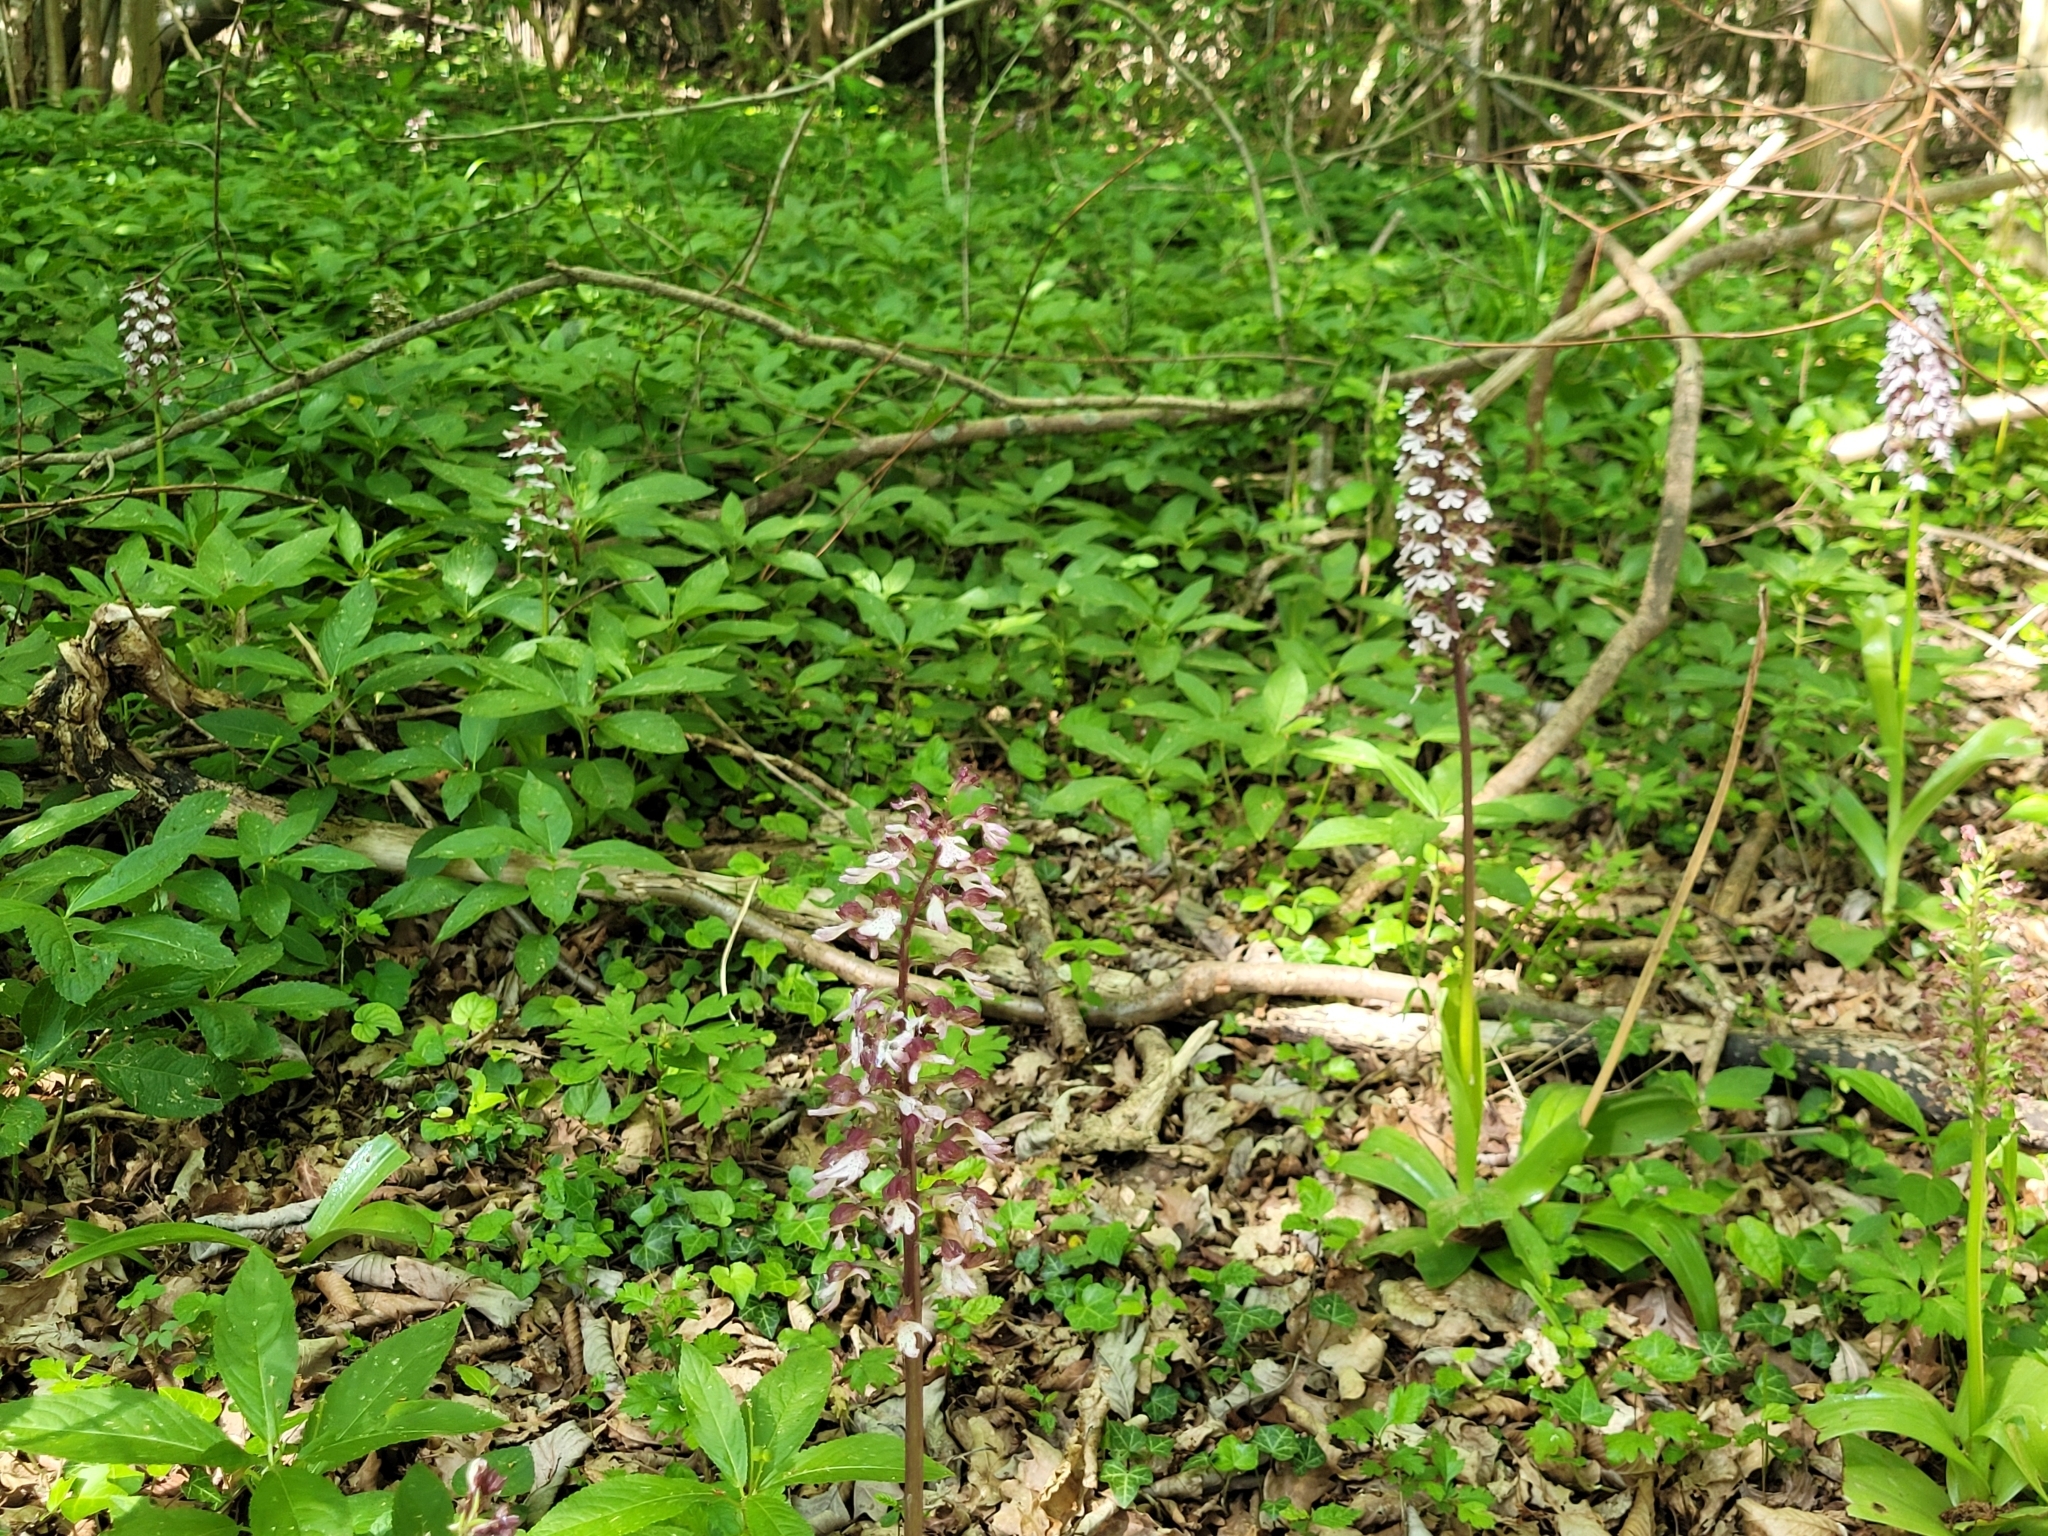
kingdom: Plantae
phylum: Tracheophyta
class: Liliopsida
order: Asparagales
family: Orchidaceae
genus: Orchis
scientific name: Orchis purpurea
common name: Lady orchid
